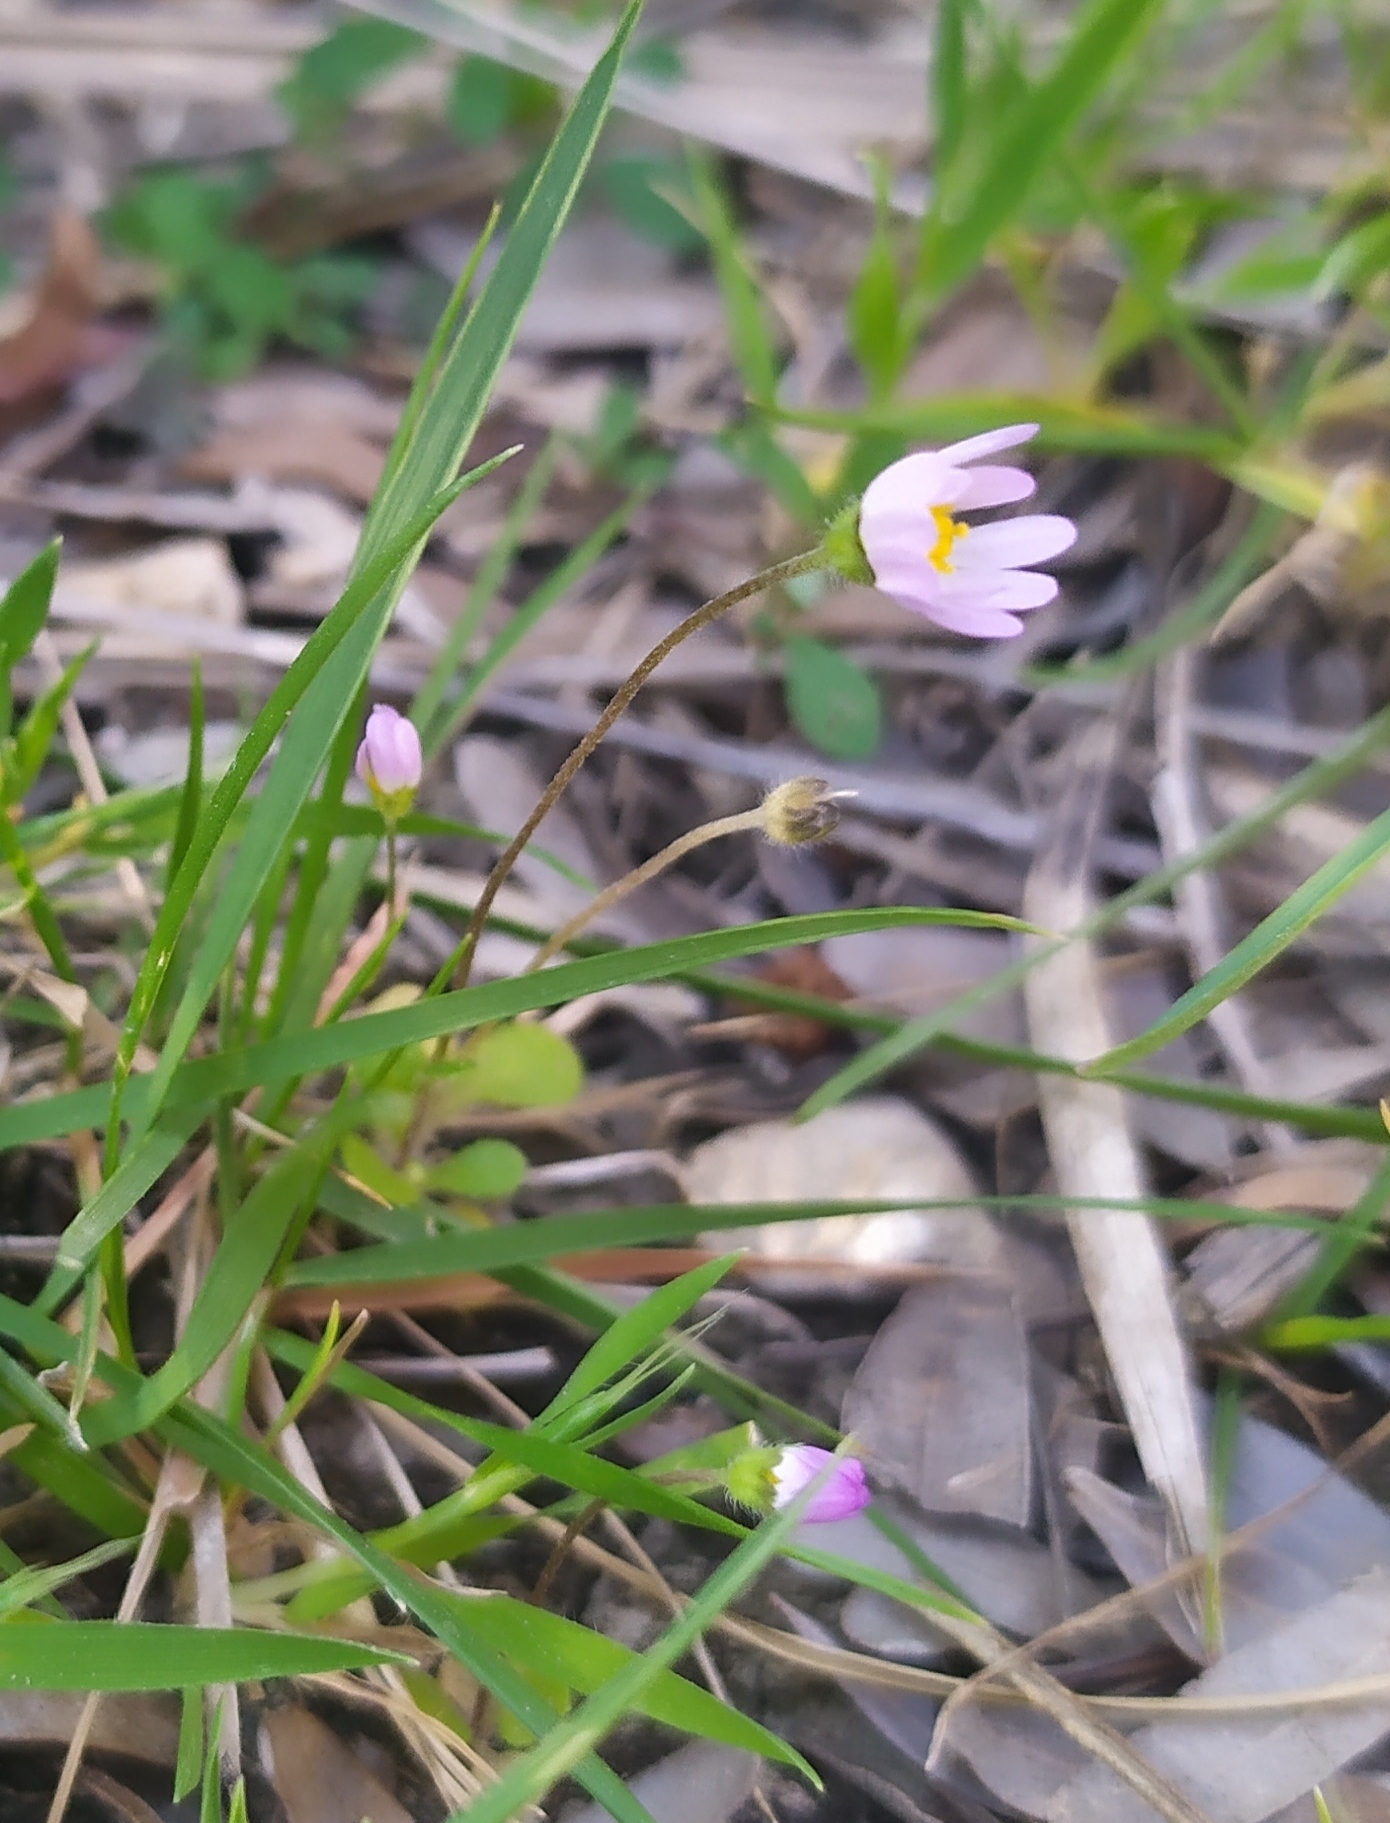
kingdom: Plantae
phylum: Tracheophyta
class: Magnoliopsida
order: Asterales
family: Asteraceae
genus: Bellis
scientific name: Bellis annua
